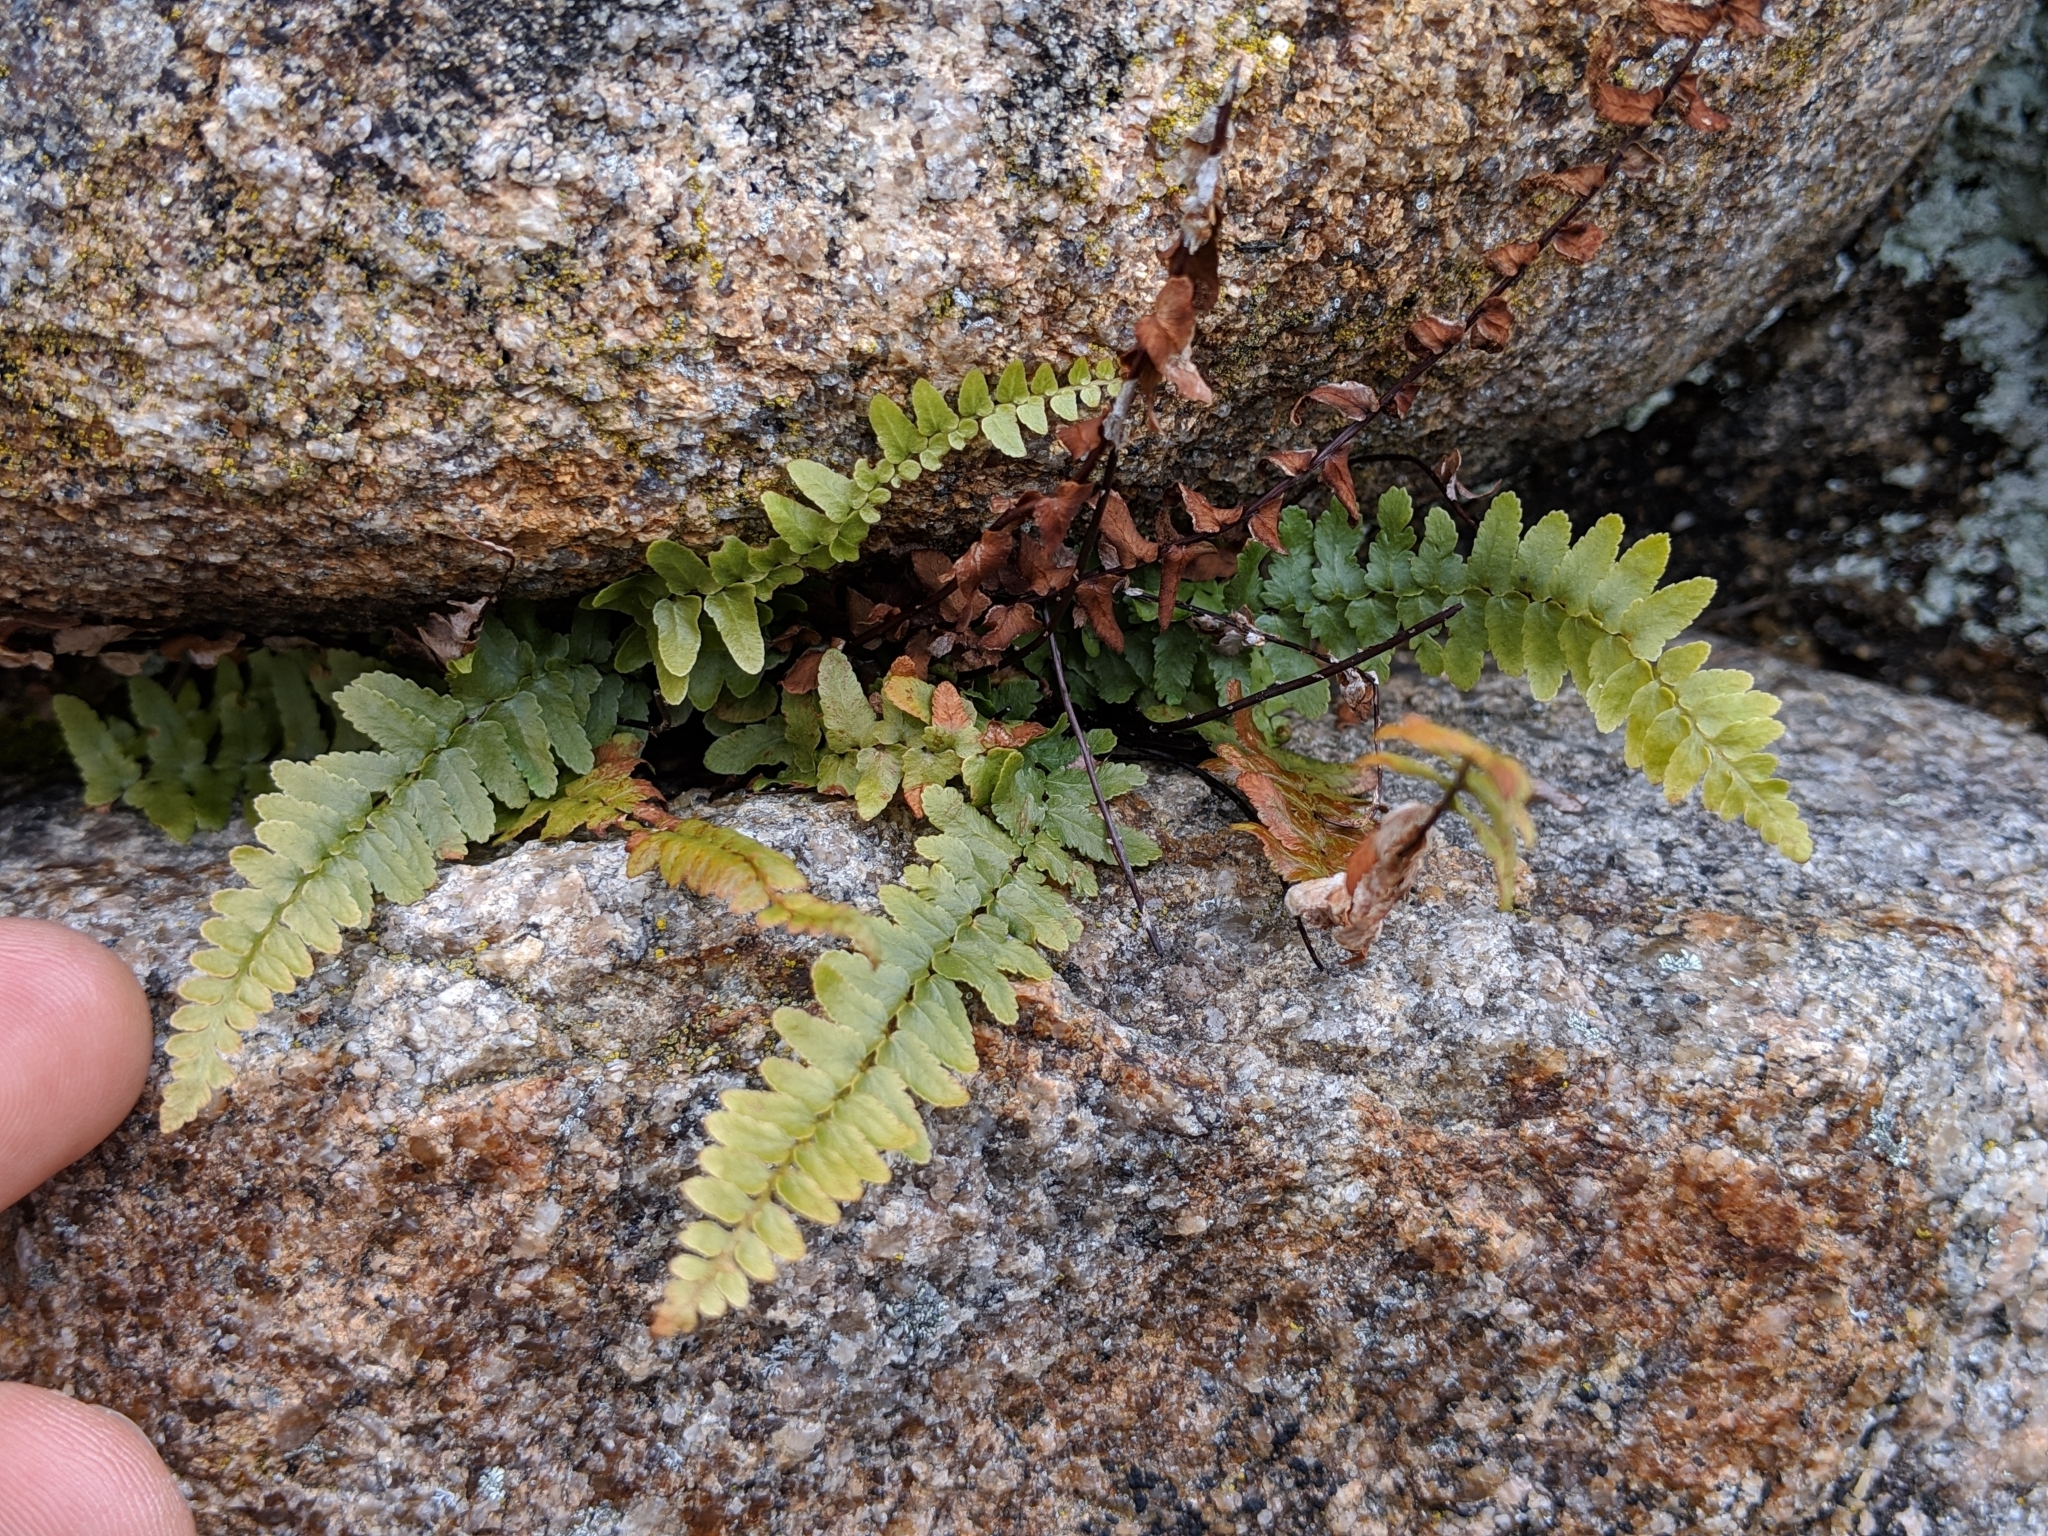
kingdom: Plantae
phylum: Tracheophyta
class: Polypodiopsida
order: Polypodiales
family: Aspleniaceae
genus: Asplenium
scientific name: Asplenium platyneuron
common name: Ebony spleenwort
